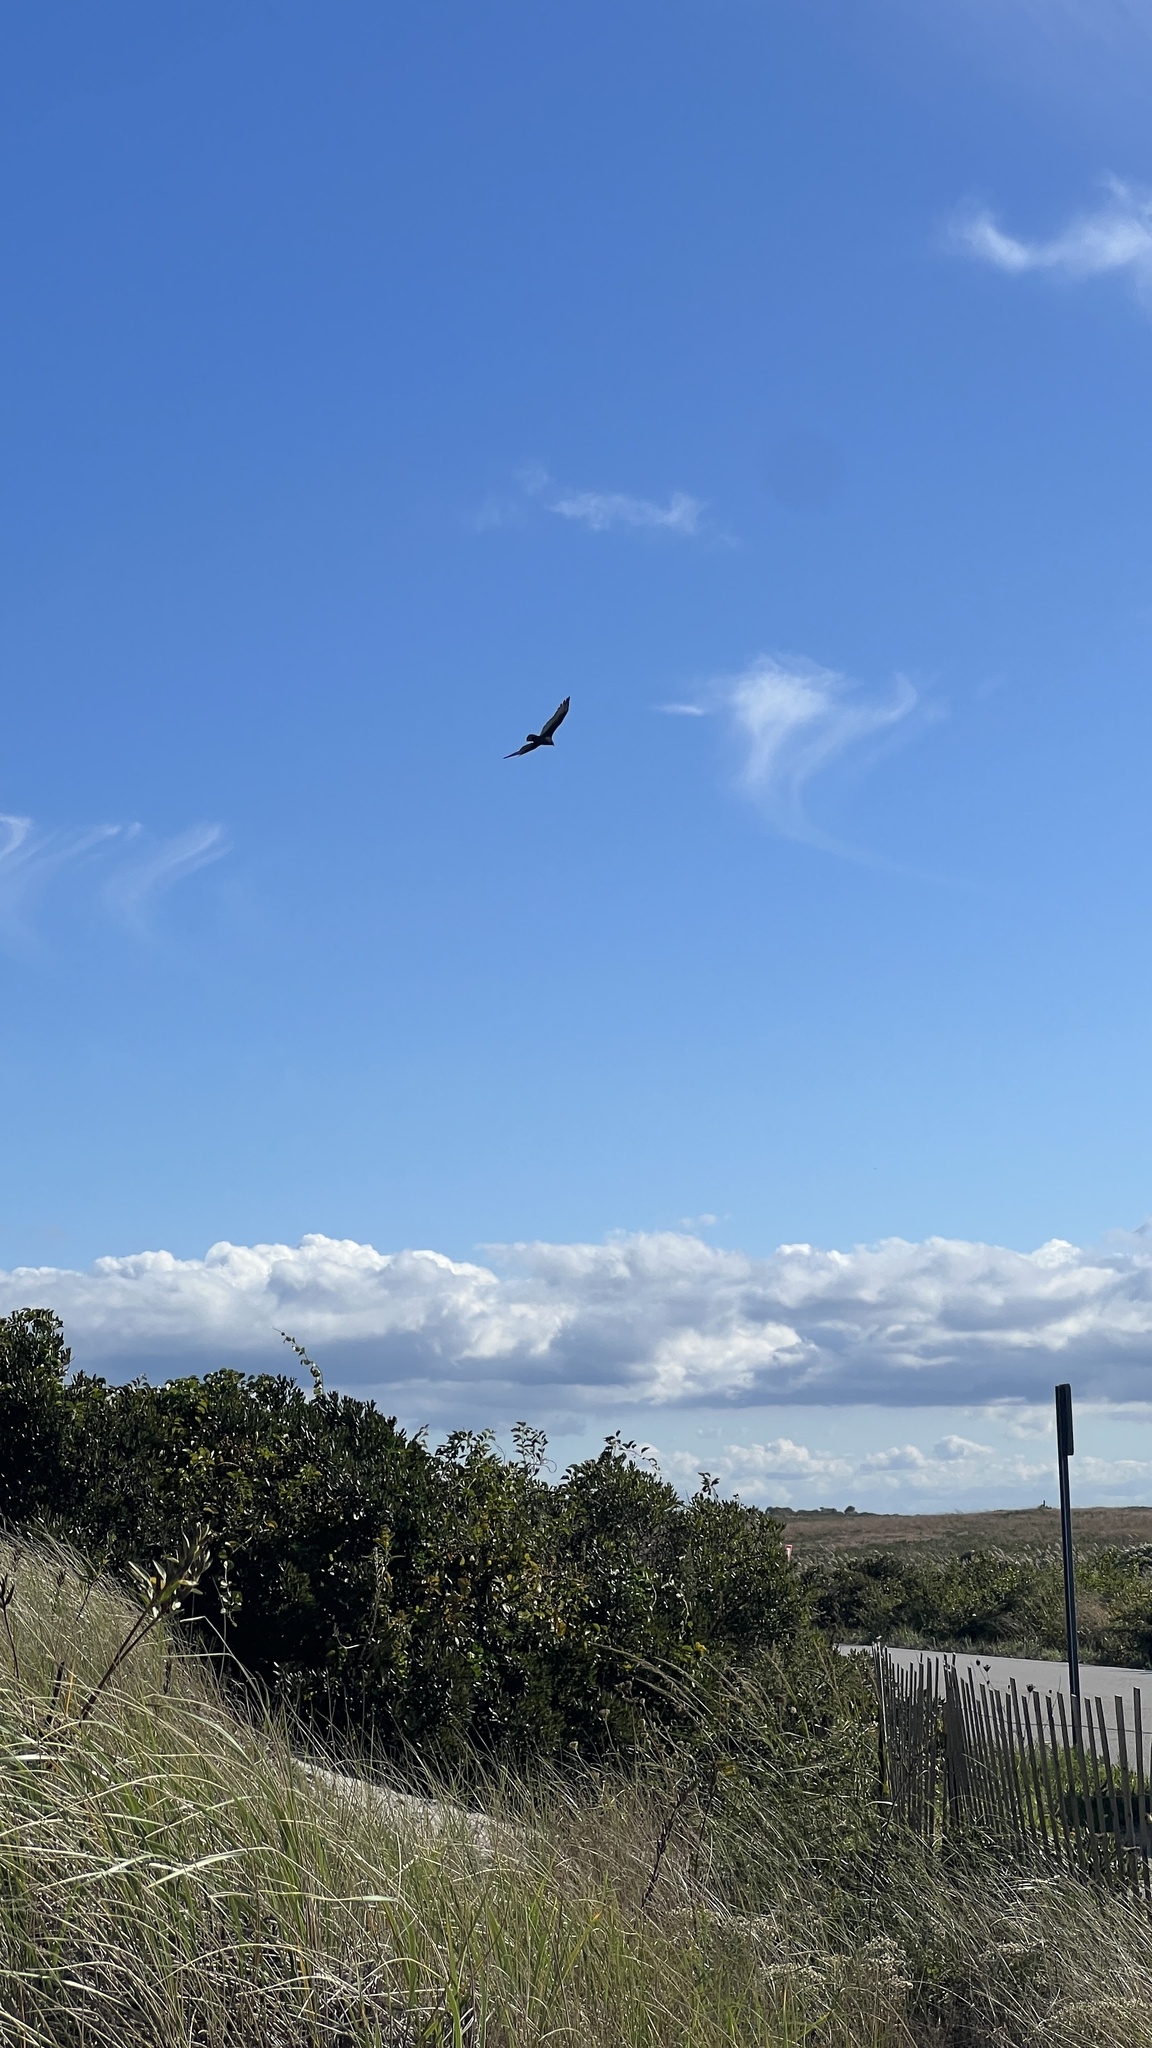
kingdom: Animalia
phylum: Chordata
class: Aves
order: Accipitriformes
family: Cathartidae
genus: Cathartes
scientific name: Cathartes aura
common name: Turkey vulture
